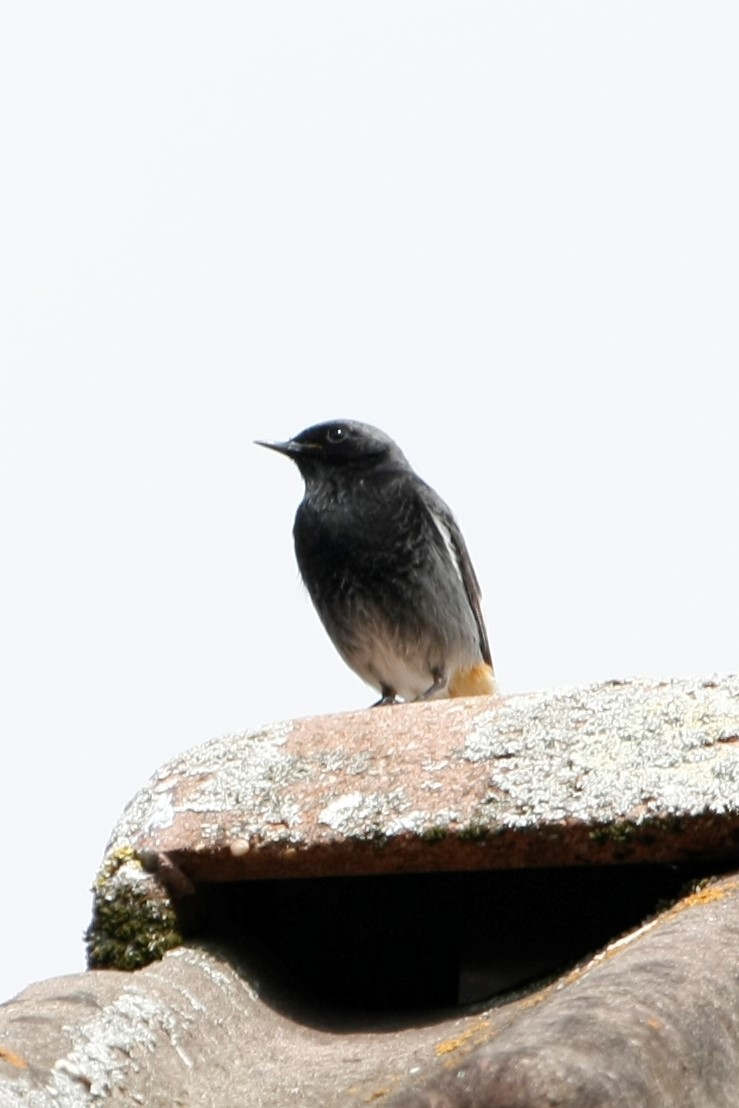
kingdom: Animalia
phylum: Chordata
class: Aves
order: Passeriformes
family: Muscicapidae
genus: Phoenicurus
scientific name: Phoenicurus ochruros
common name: Black redstart
